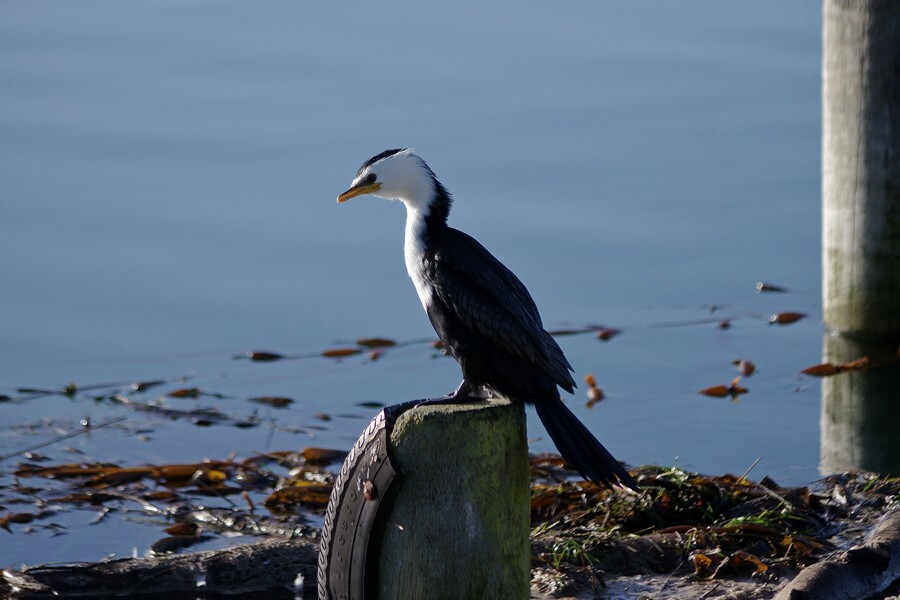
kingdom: Animalia
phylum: Chordata
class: Aves
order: Suliformes
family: Phalacrocoracidae
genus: Microcarbo
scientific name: Microcarbo melanoleucos
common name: Little pied cormorant
